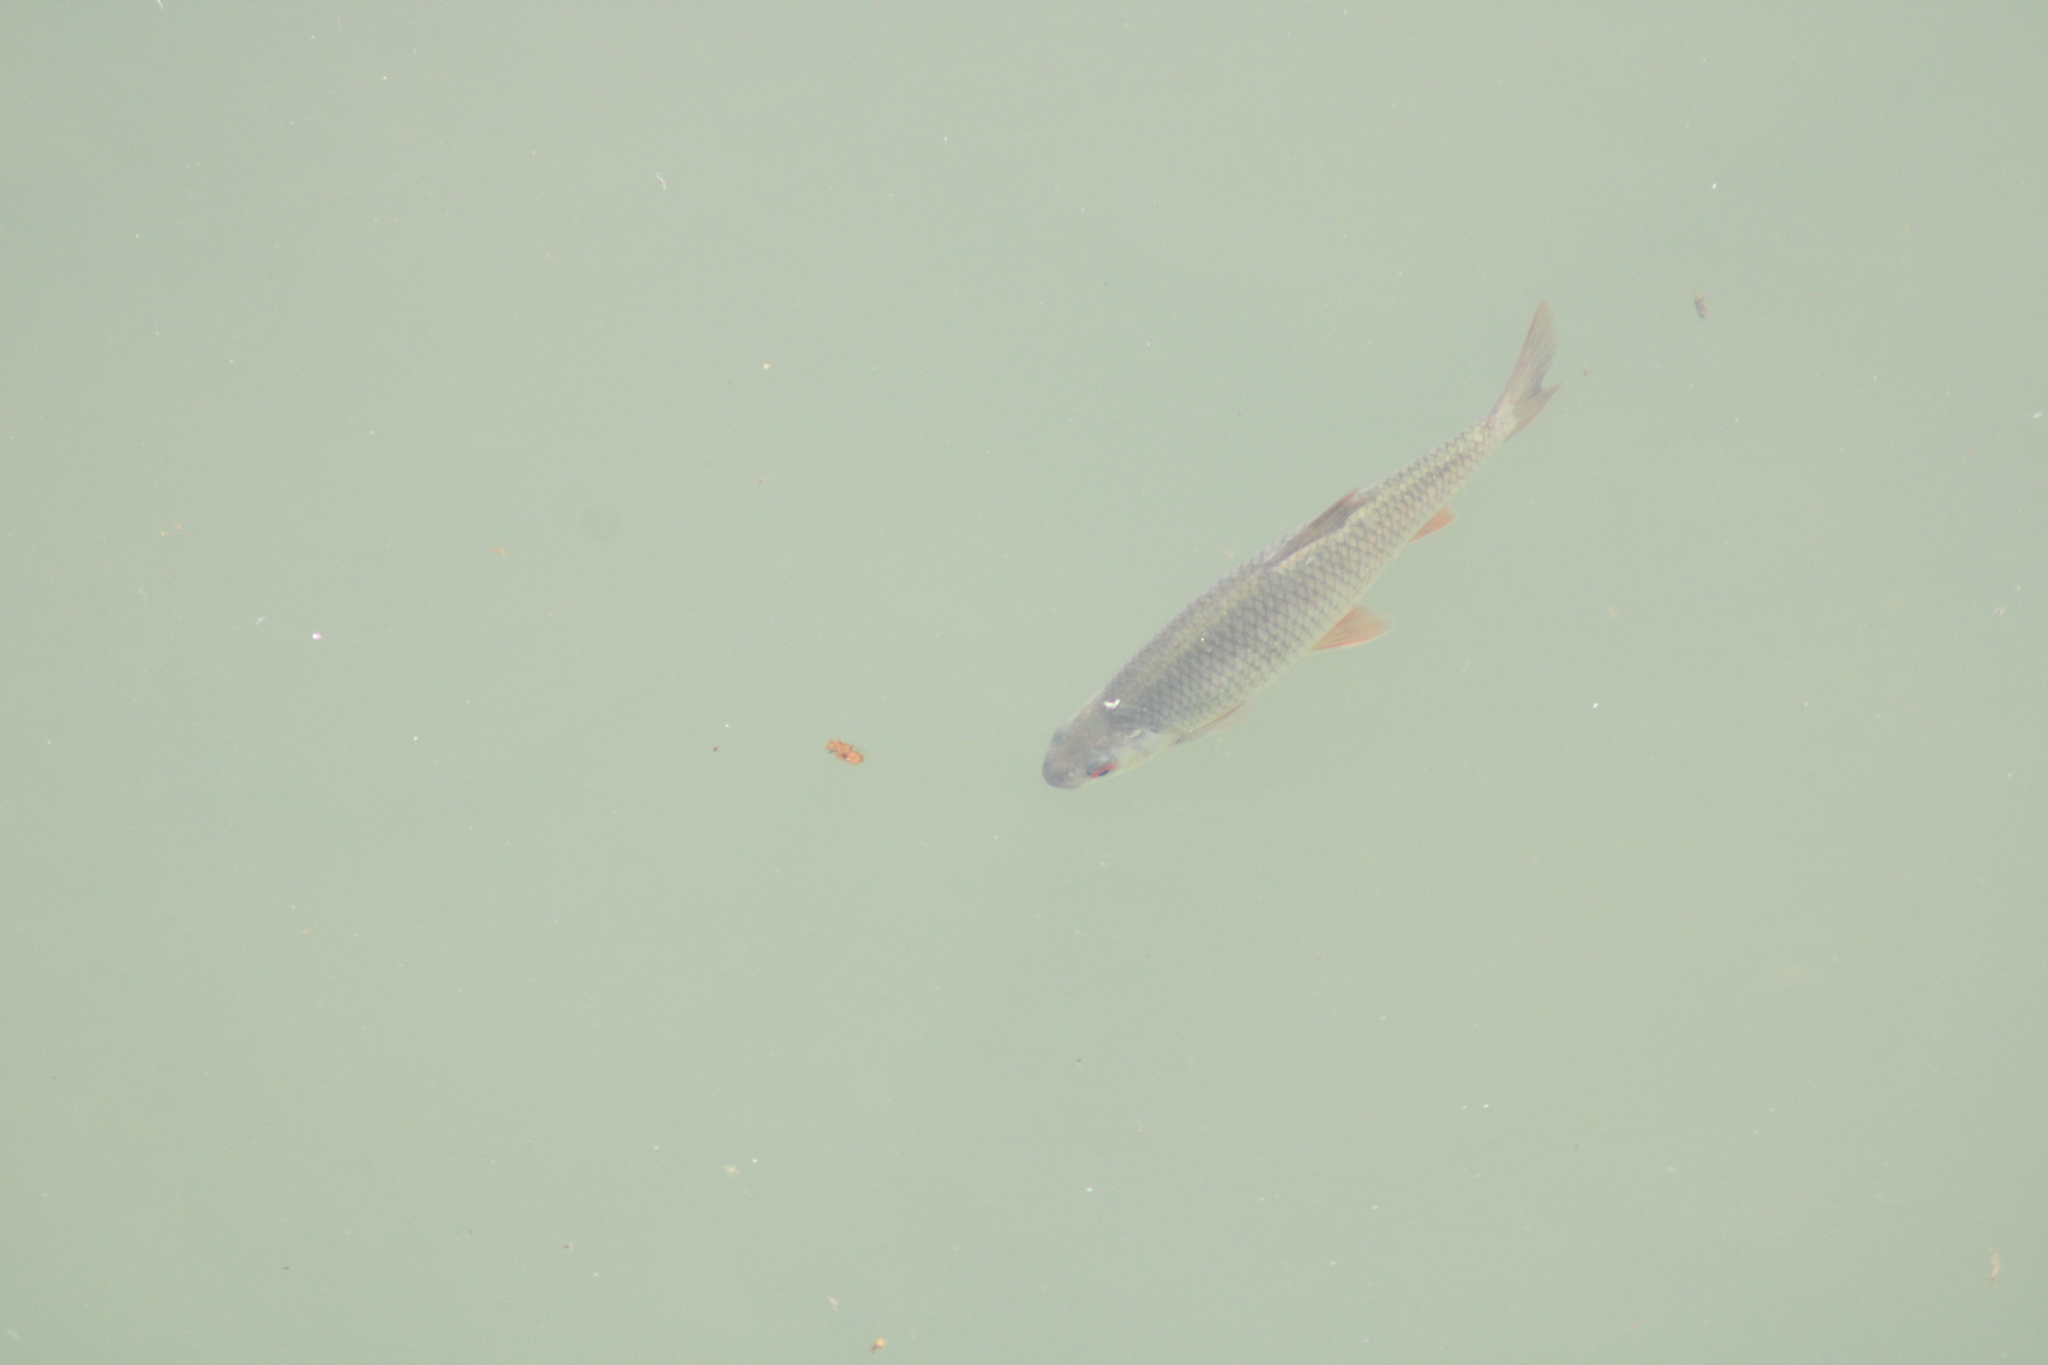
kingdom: Animalia
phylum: Chordata
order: Cypriniformes
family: Cyprinidae
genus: Rutilus
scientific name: Rutilus rutilus
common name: Roach
